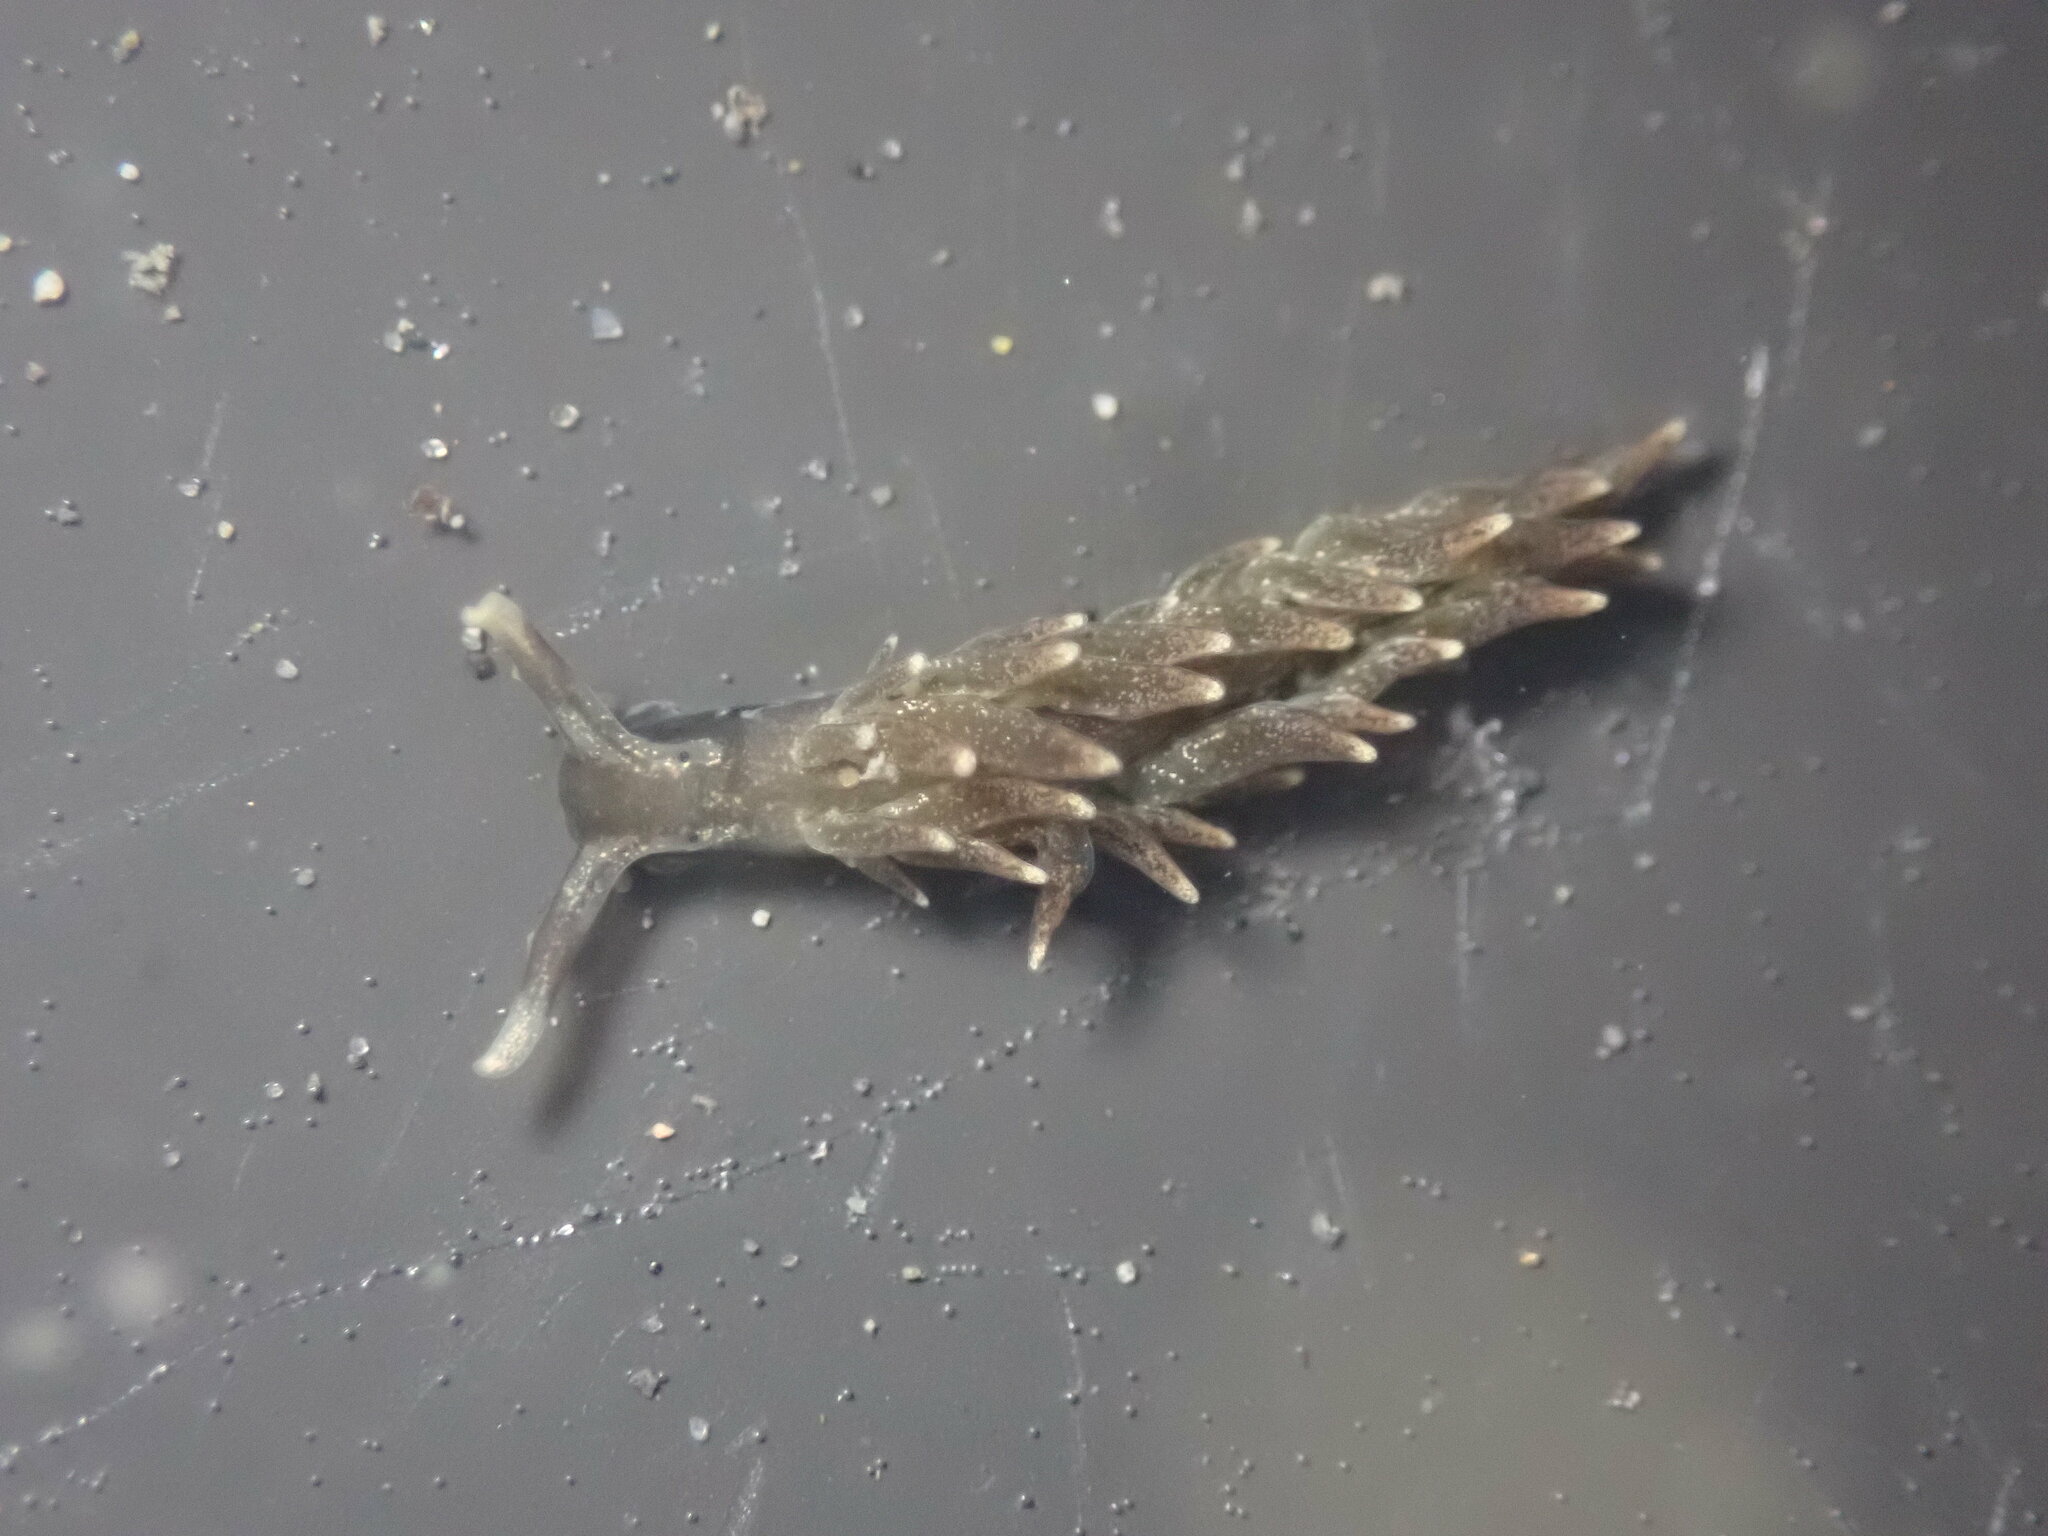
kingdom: Animalia
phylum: Mollusca
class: Gastropoda
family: Hermaeidae
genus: Aplysiopsis
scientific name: Aplysiopsis enteromorphae
